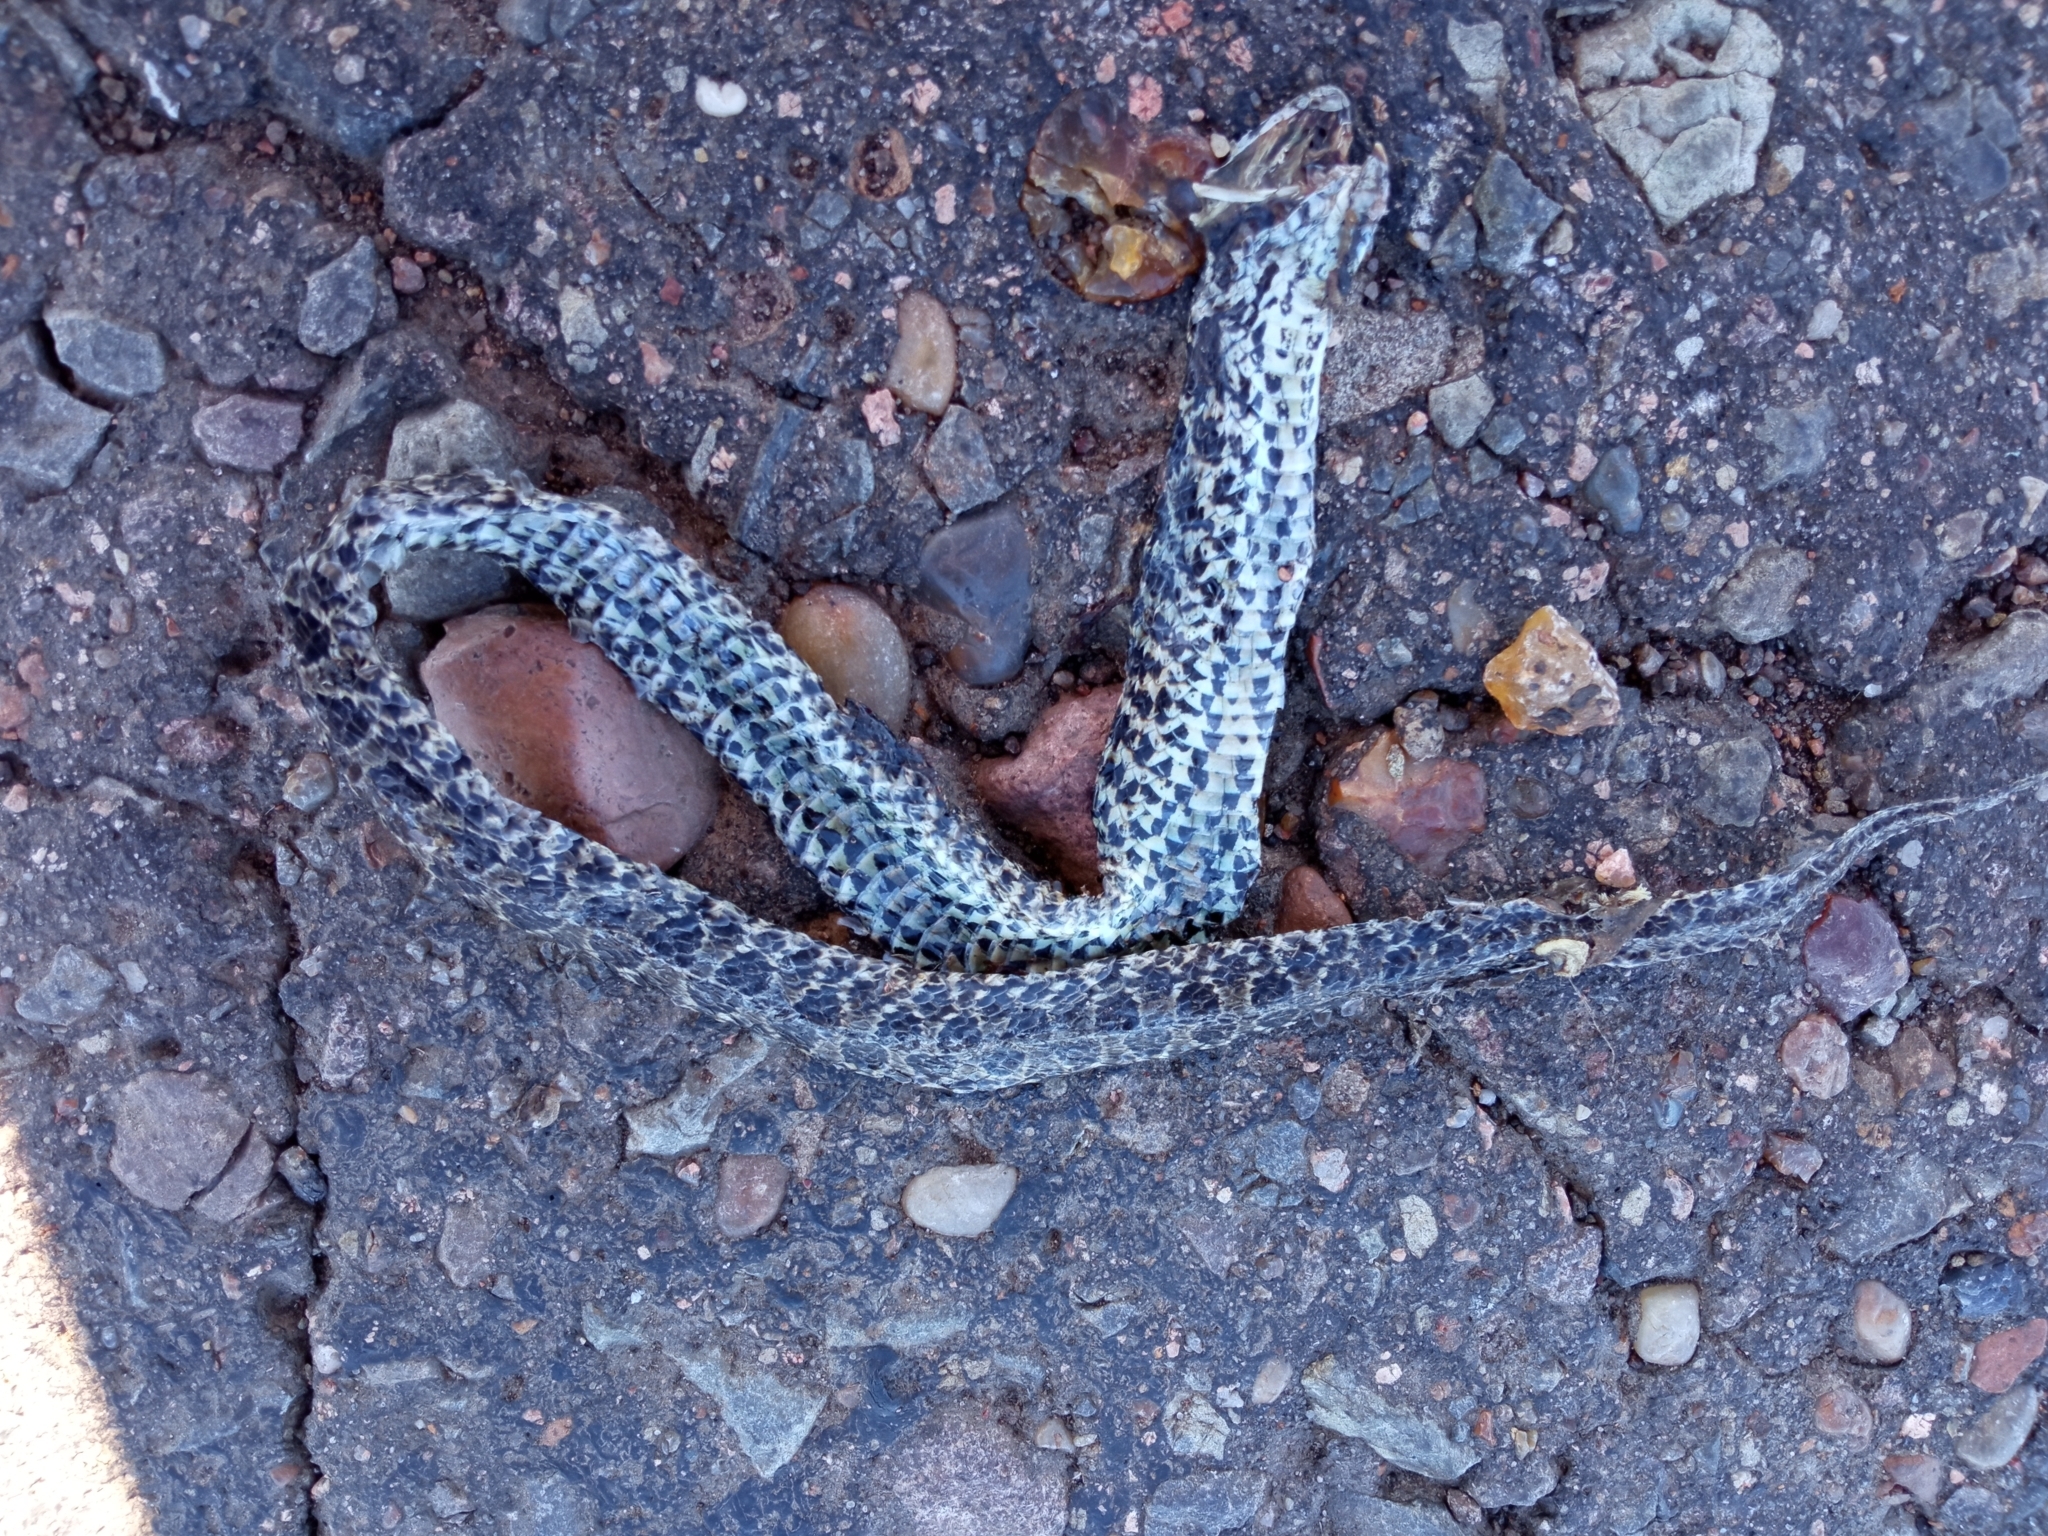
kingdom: Animalia
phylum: Chordata
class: Squamata
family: Colubridae
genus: Tachymenis
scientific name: Tachymenis
